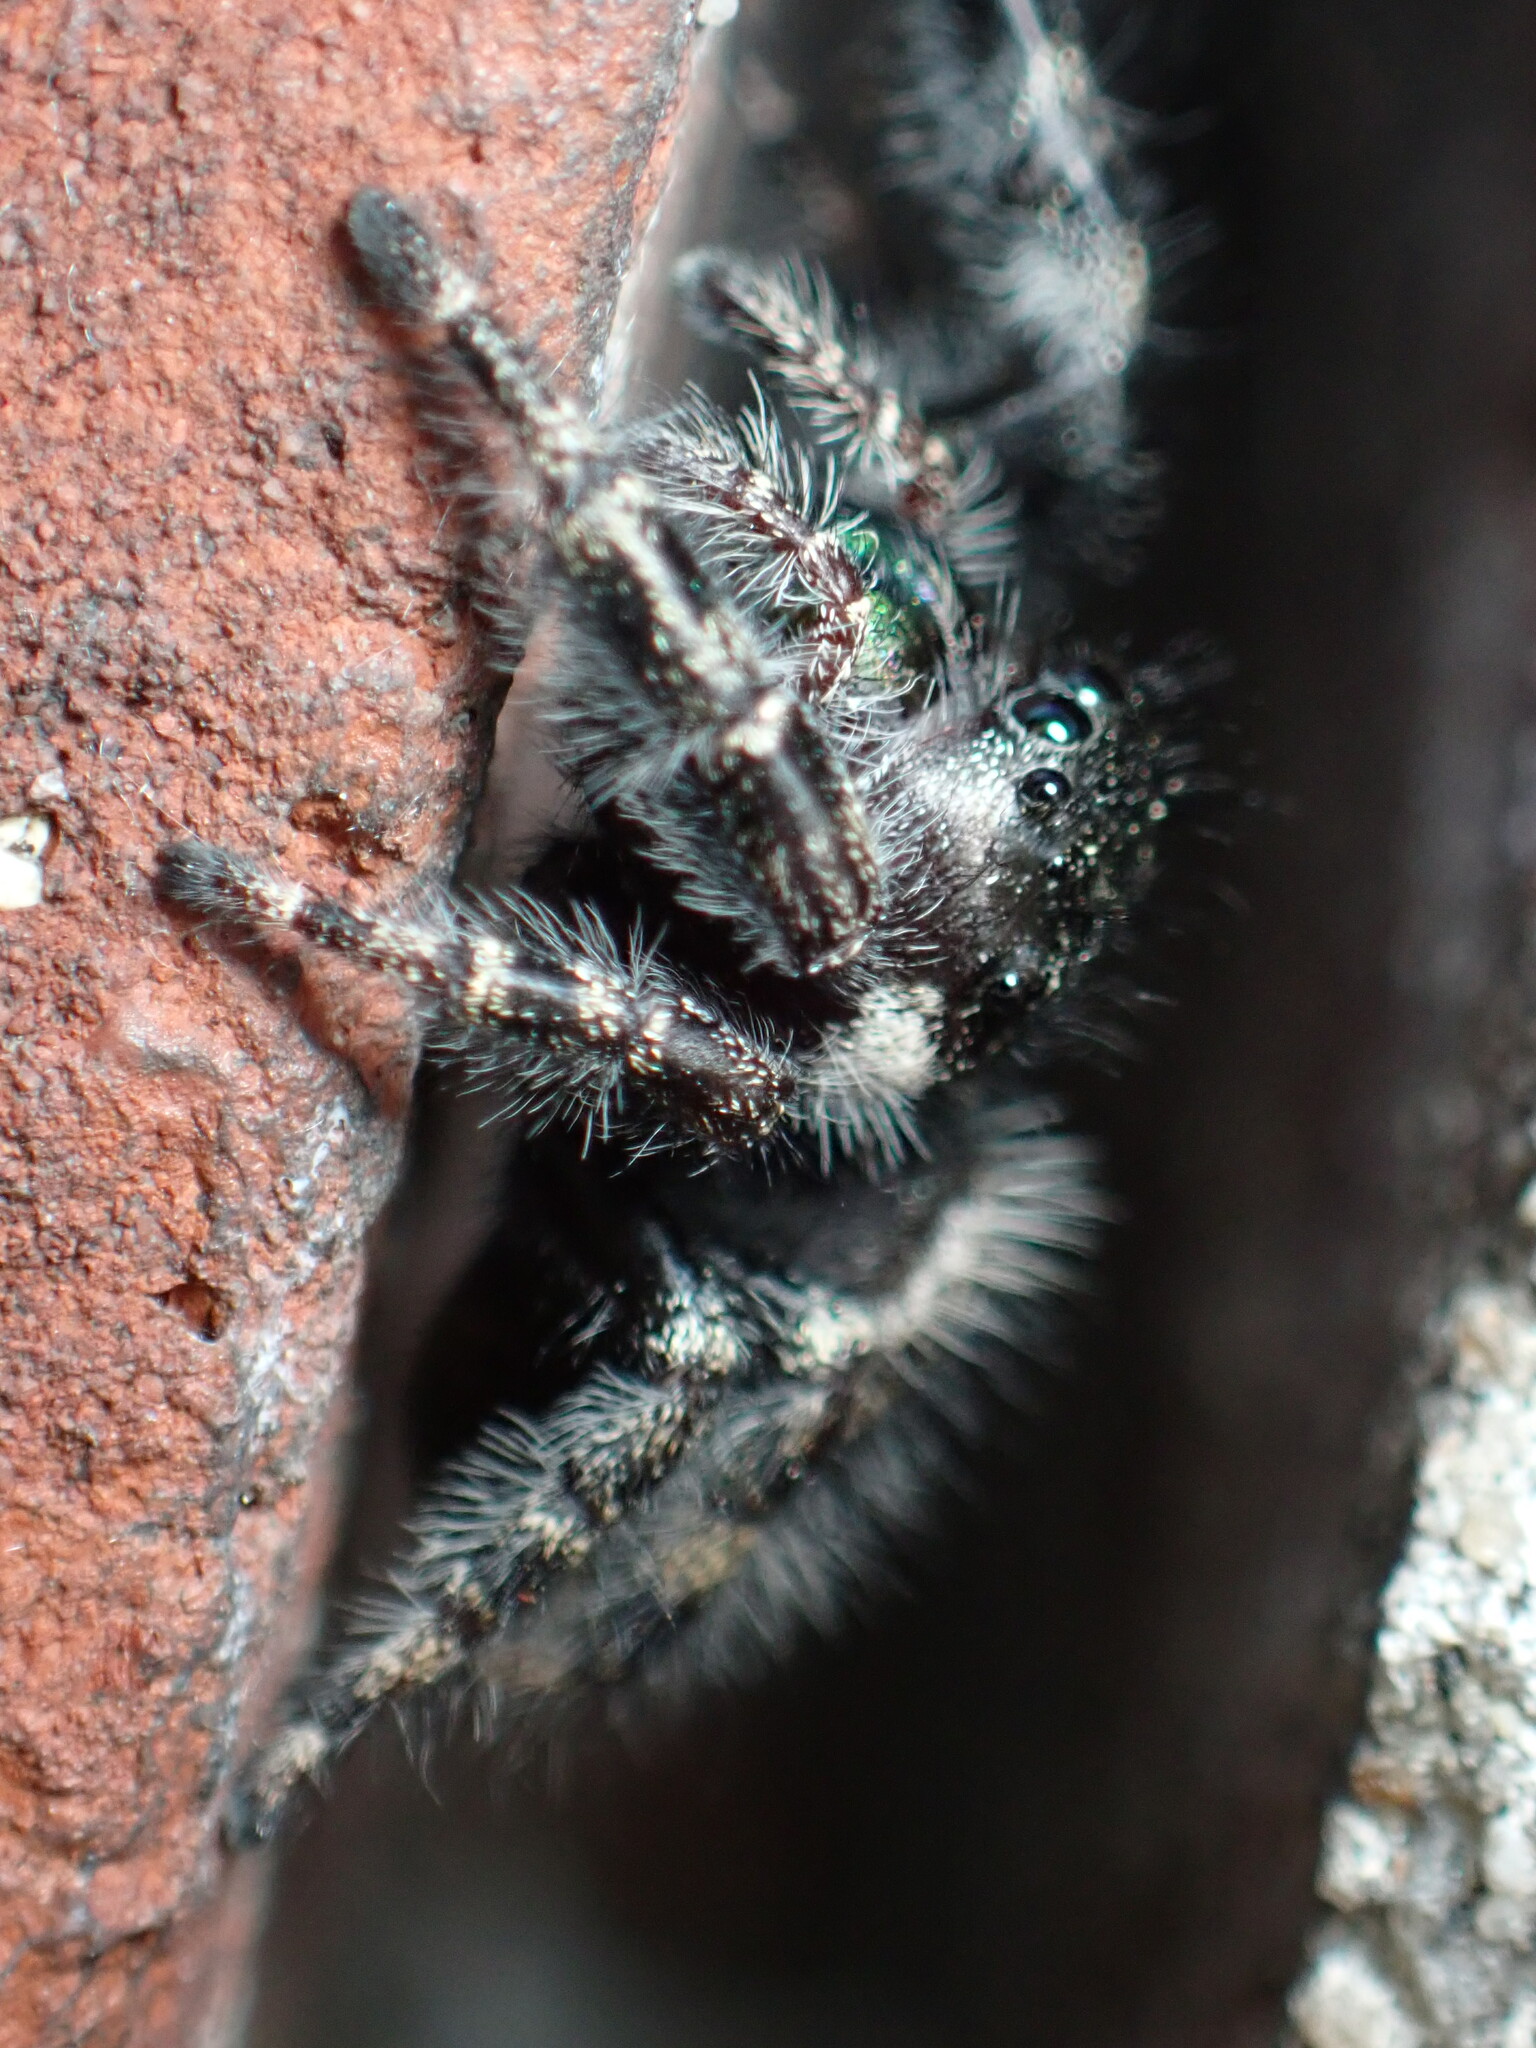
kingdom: Animalia
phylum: Arthropoda
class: Arachnida
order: Araneae
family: Salticidae
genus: Phidippus
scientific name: Phidippus audax
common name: Bold jumper
